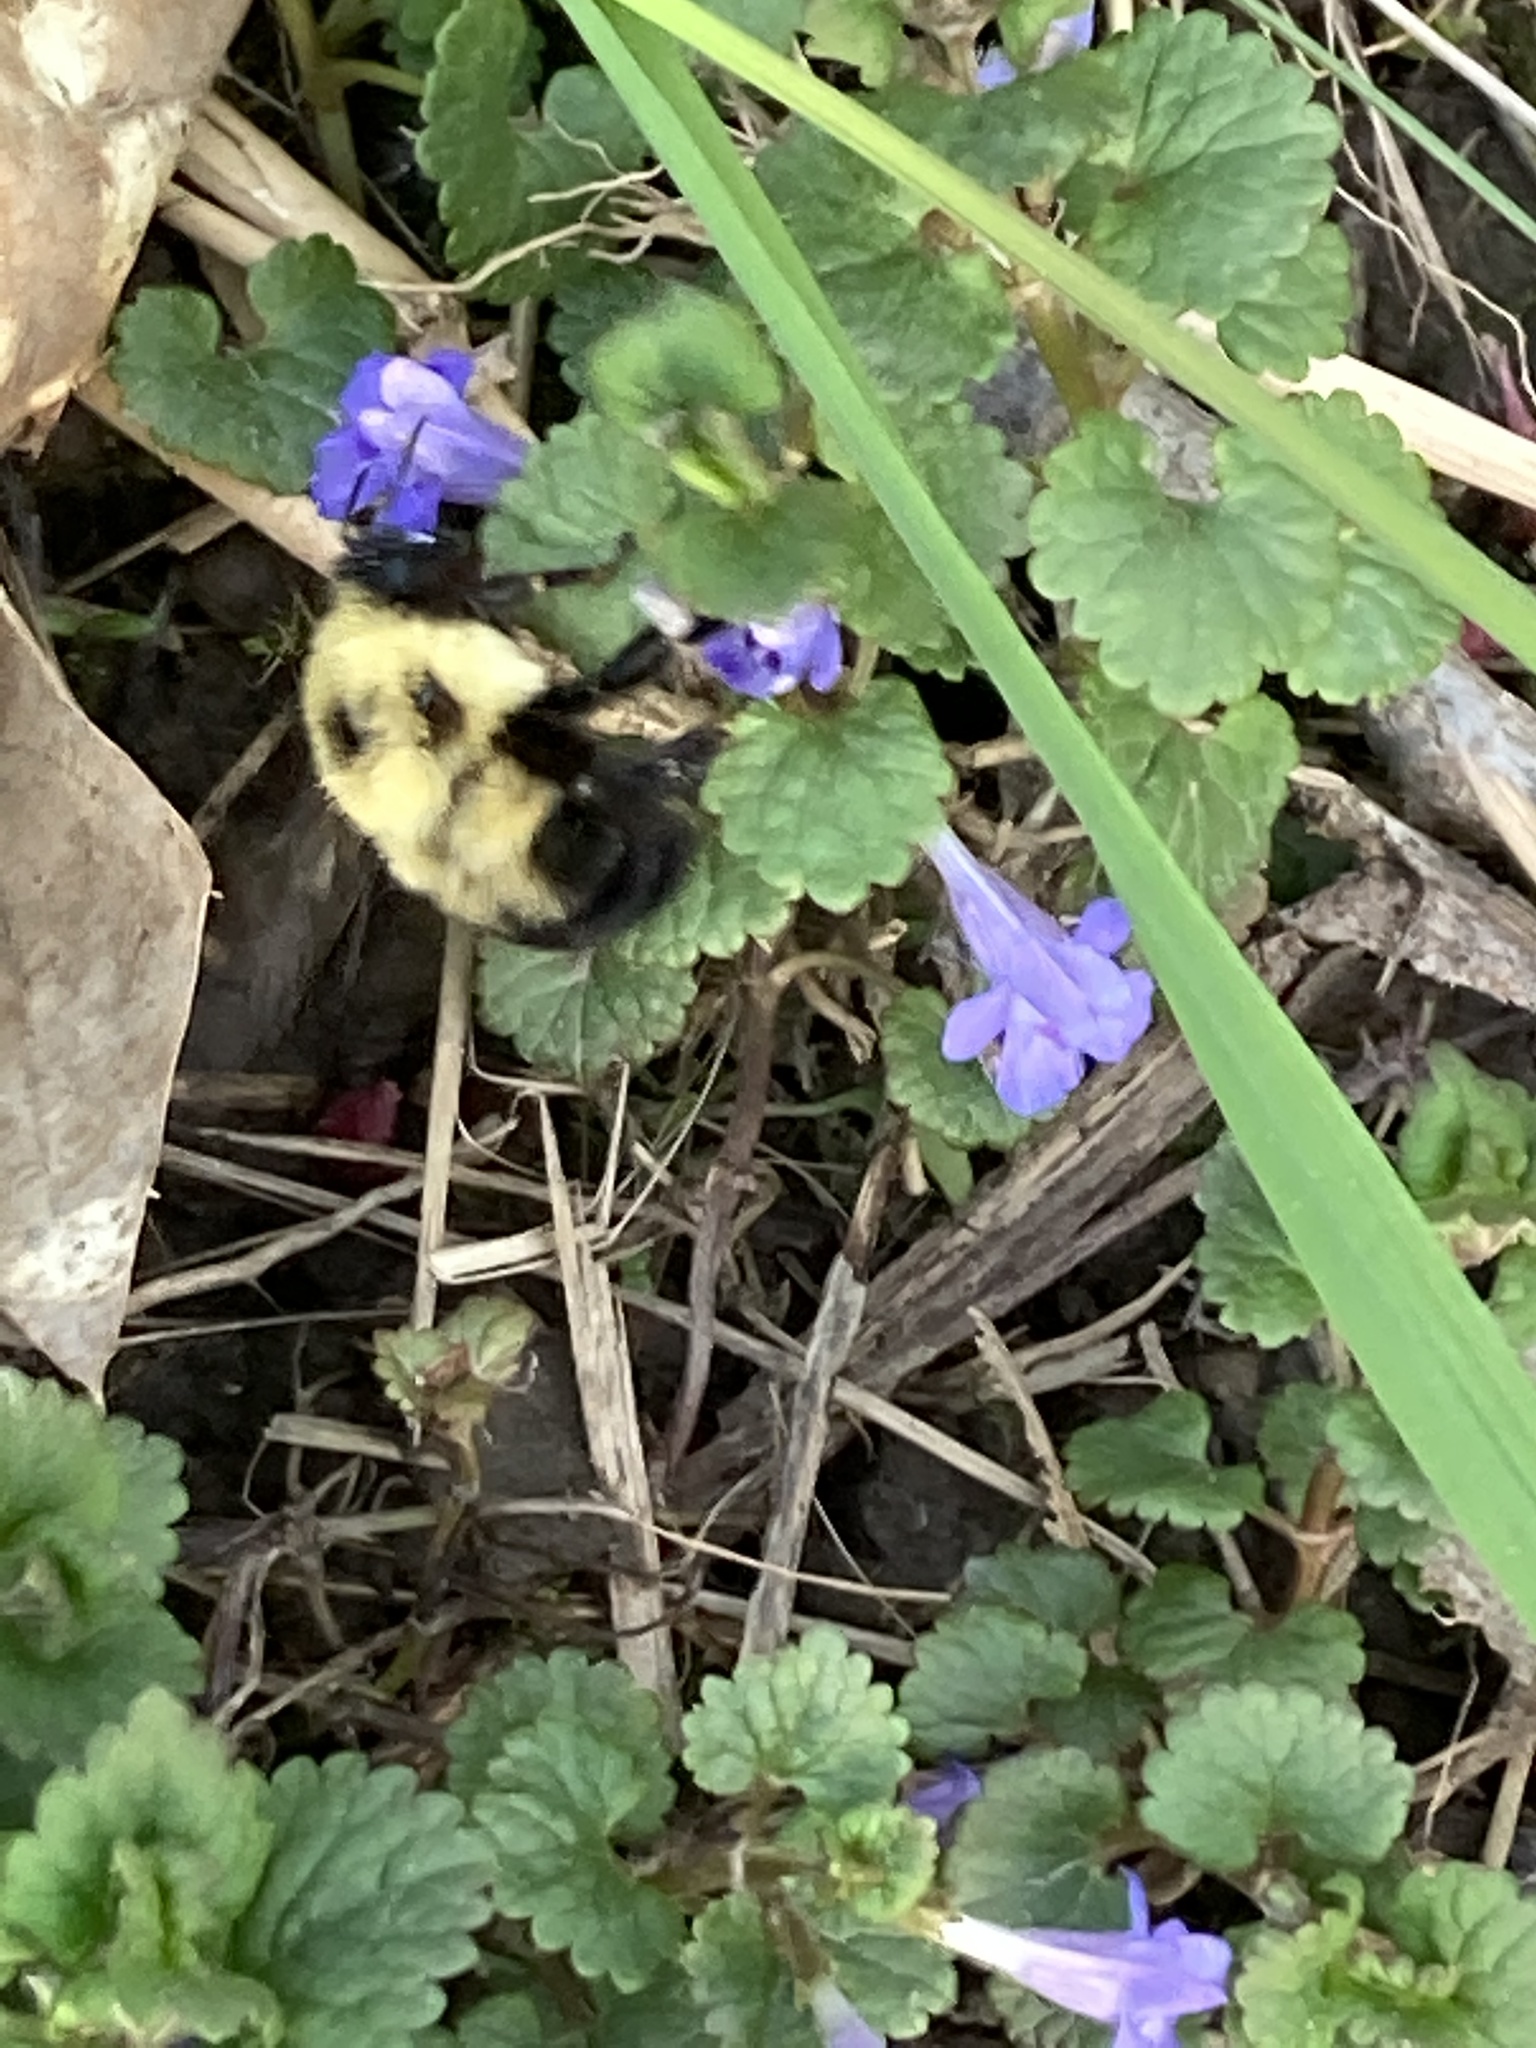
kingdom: Animalia
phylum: Arthropoda
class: Insecta
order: Hymenoptera
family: Apidae
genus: Bombus
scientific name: Bombus bimaculatus
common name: Two-spotted bumble bee
